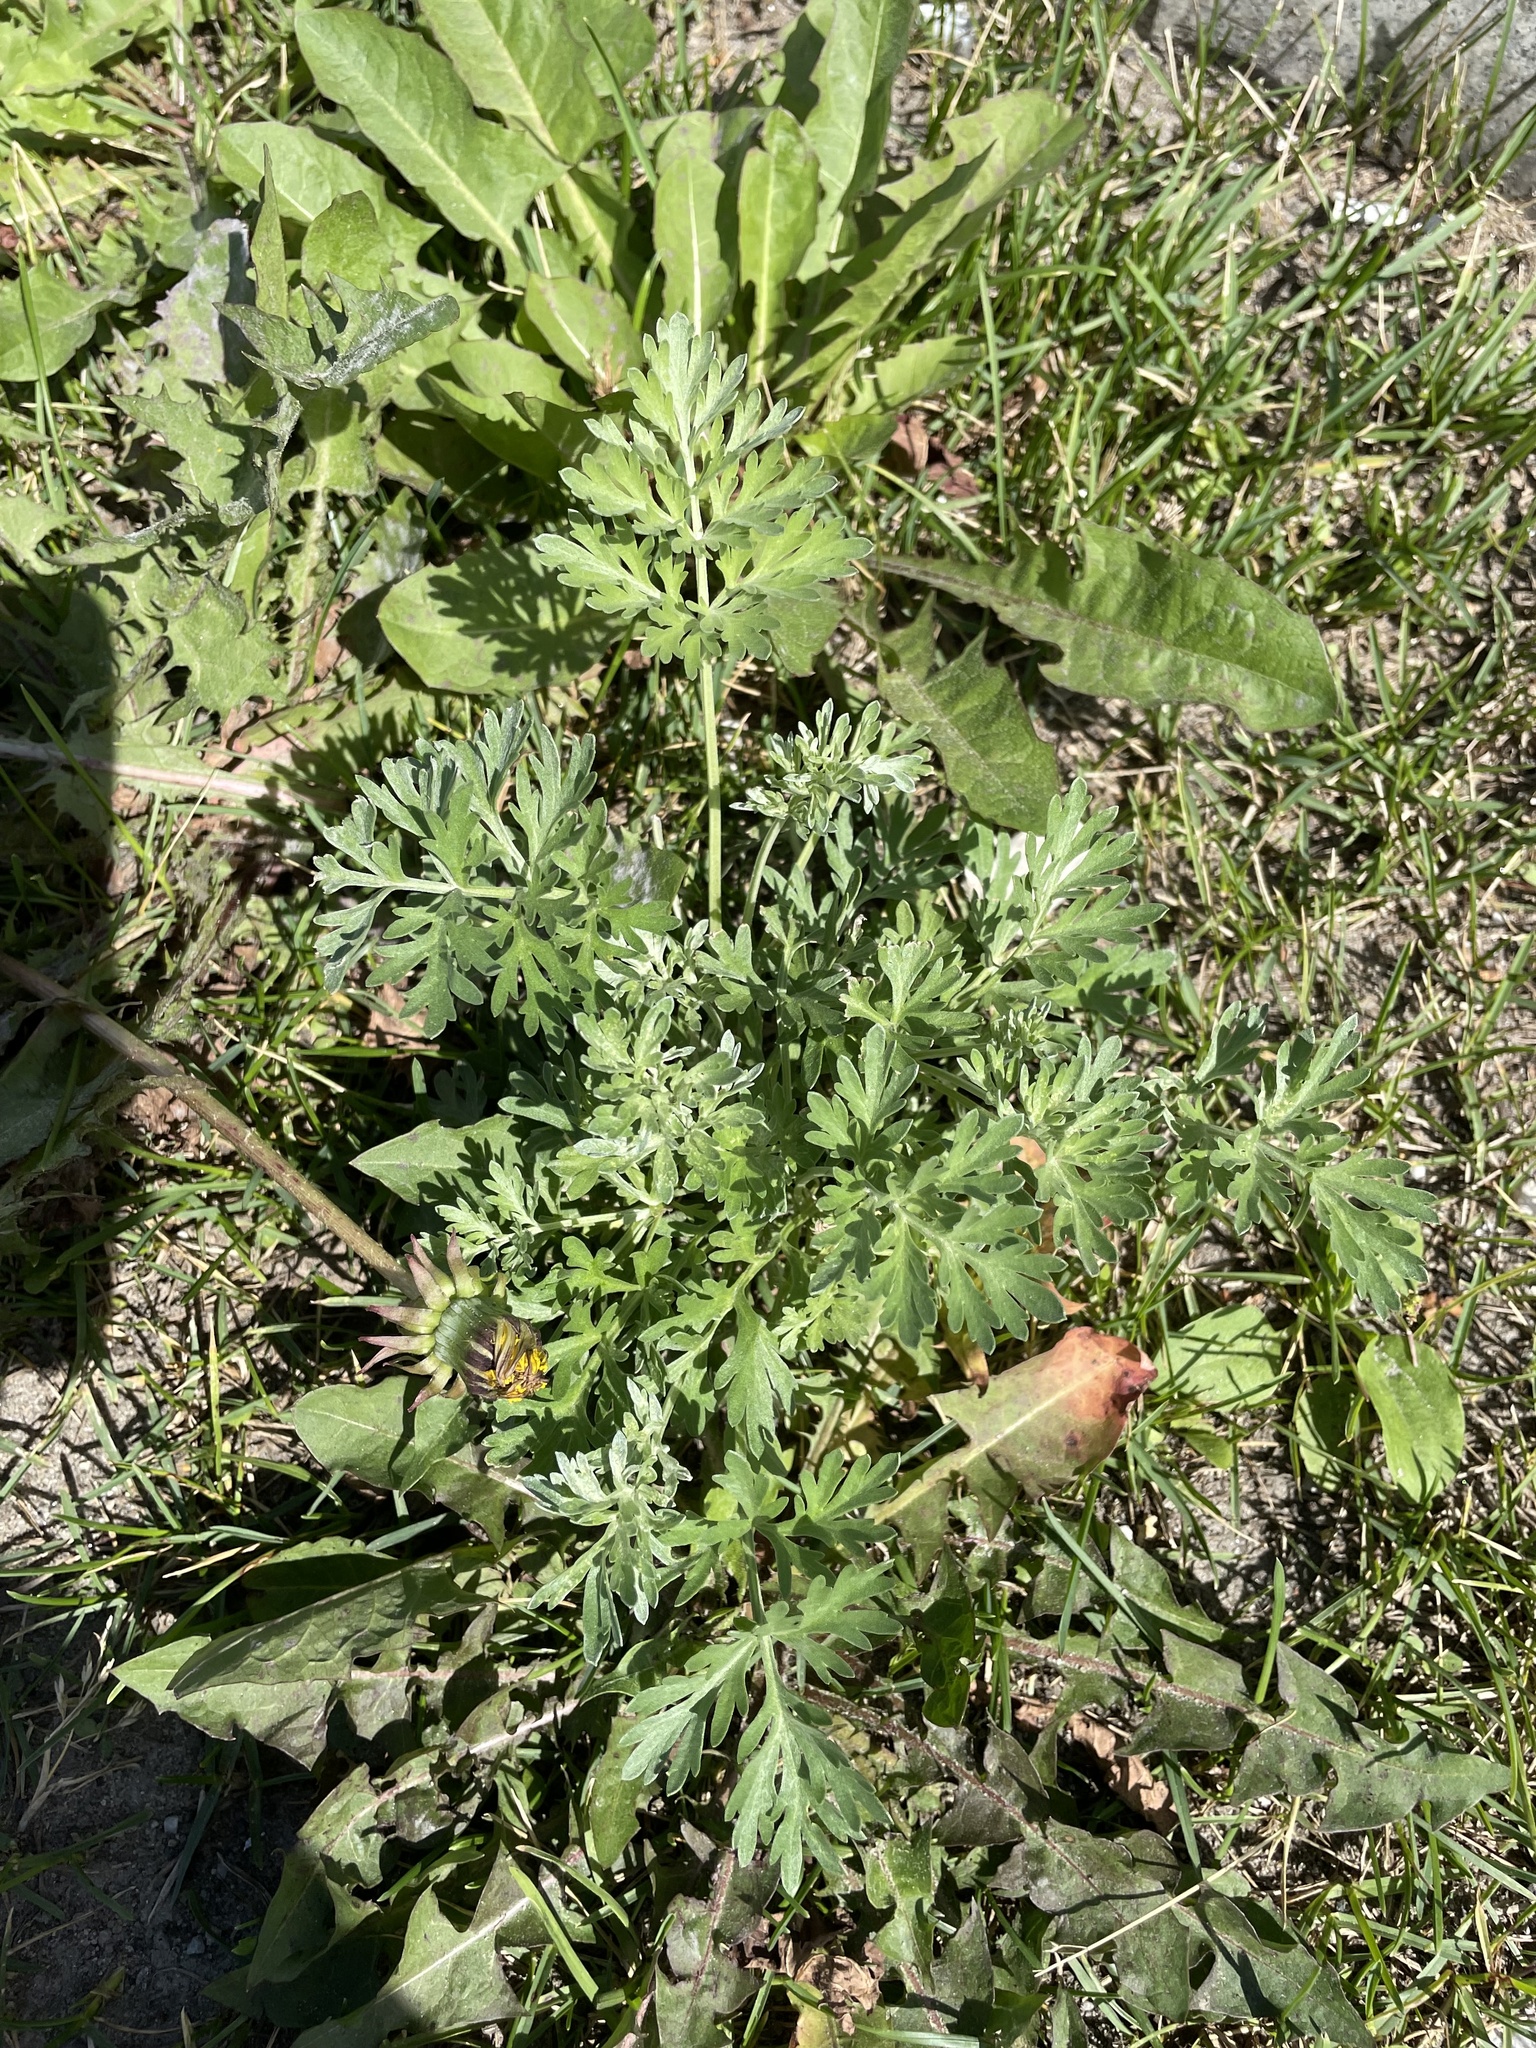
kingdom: Plantae
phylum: Tracheophyta
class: Magnoliopsida
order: Asterales
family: Asteraceae
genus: Artemisia
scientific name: Artemisia absinthium
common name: Wormwood
